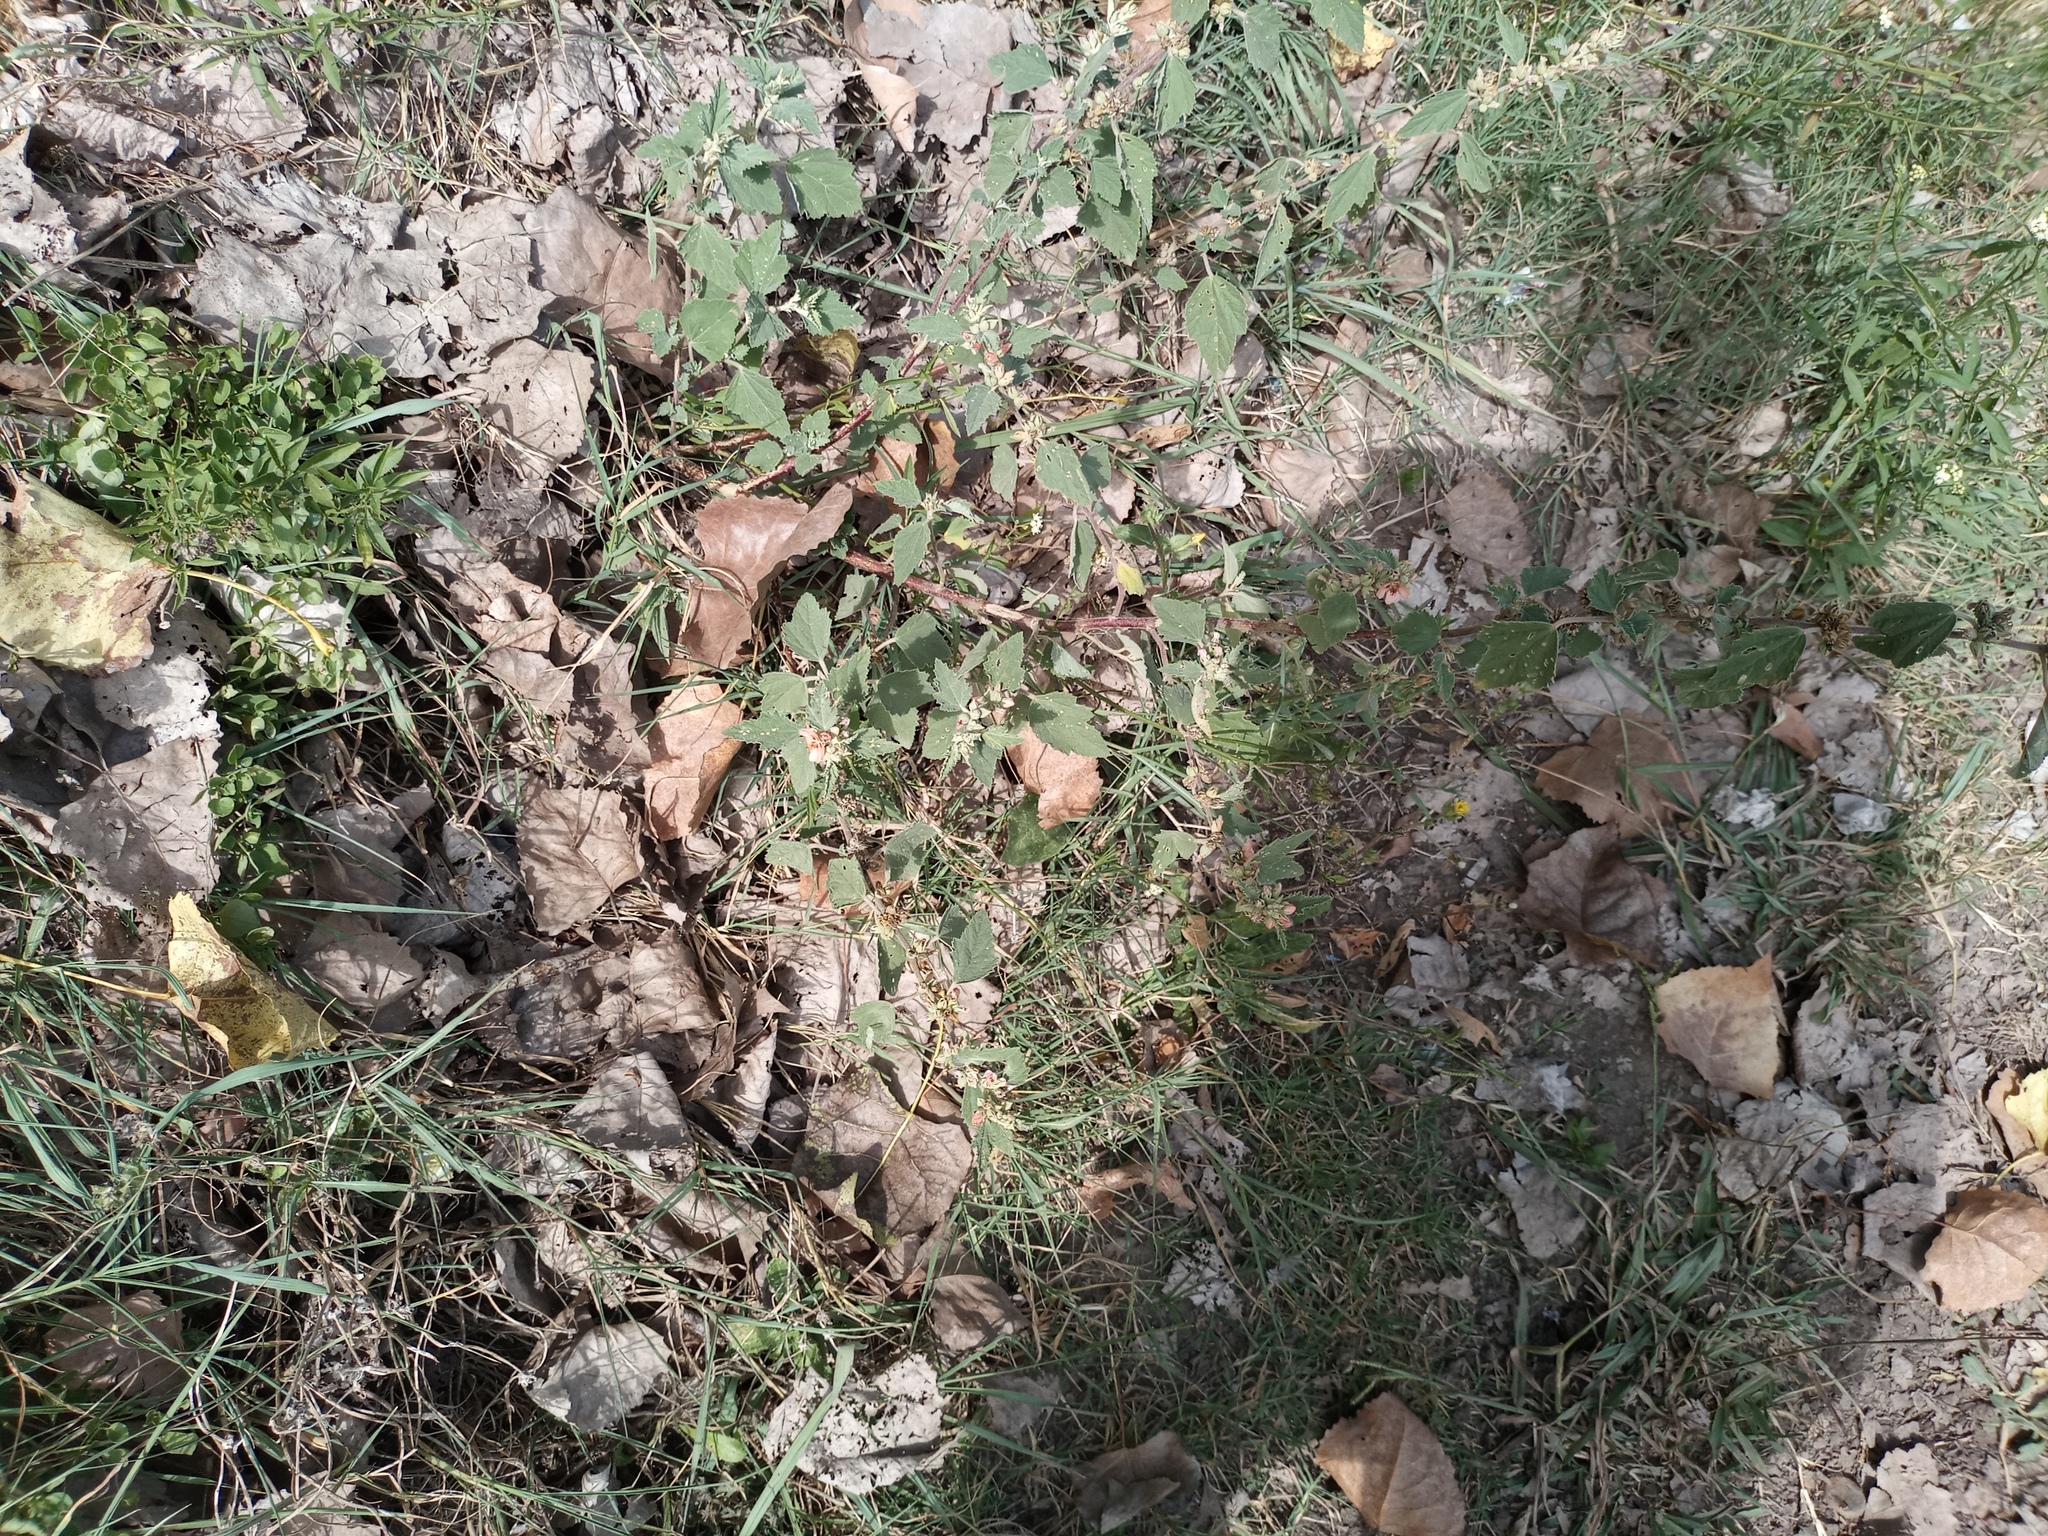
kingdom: Plantae
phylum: Tracheophyta
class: Magnoliopsida
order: Malvales
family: Malvaceae
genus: Sphaeralcea
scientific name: Sphaeralcea bonariensis
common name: Latin globemallow
